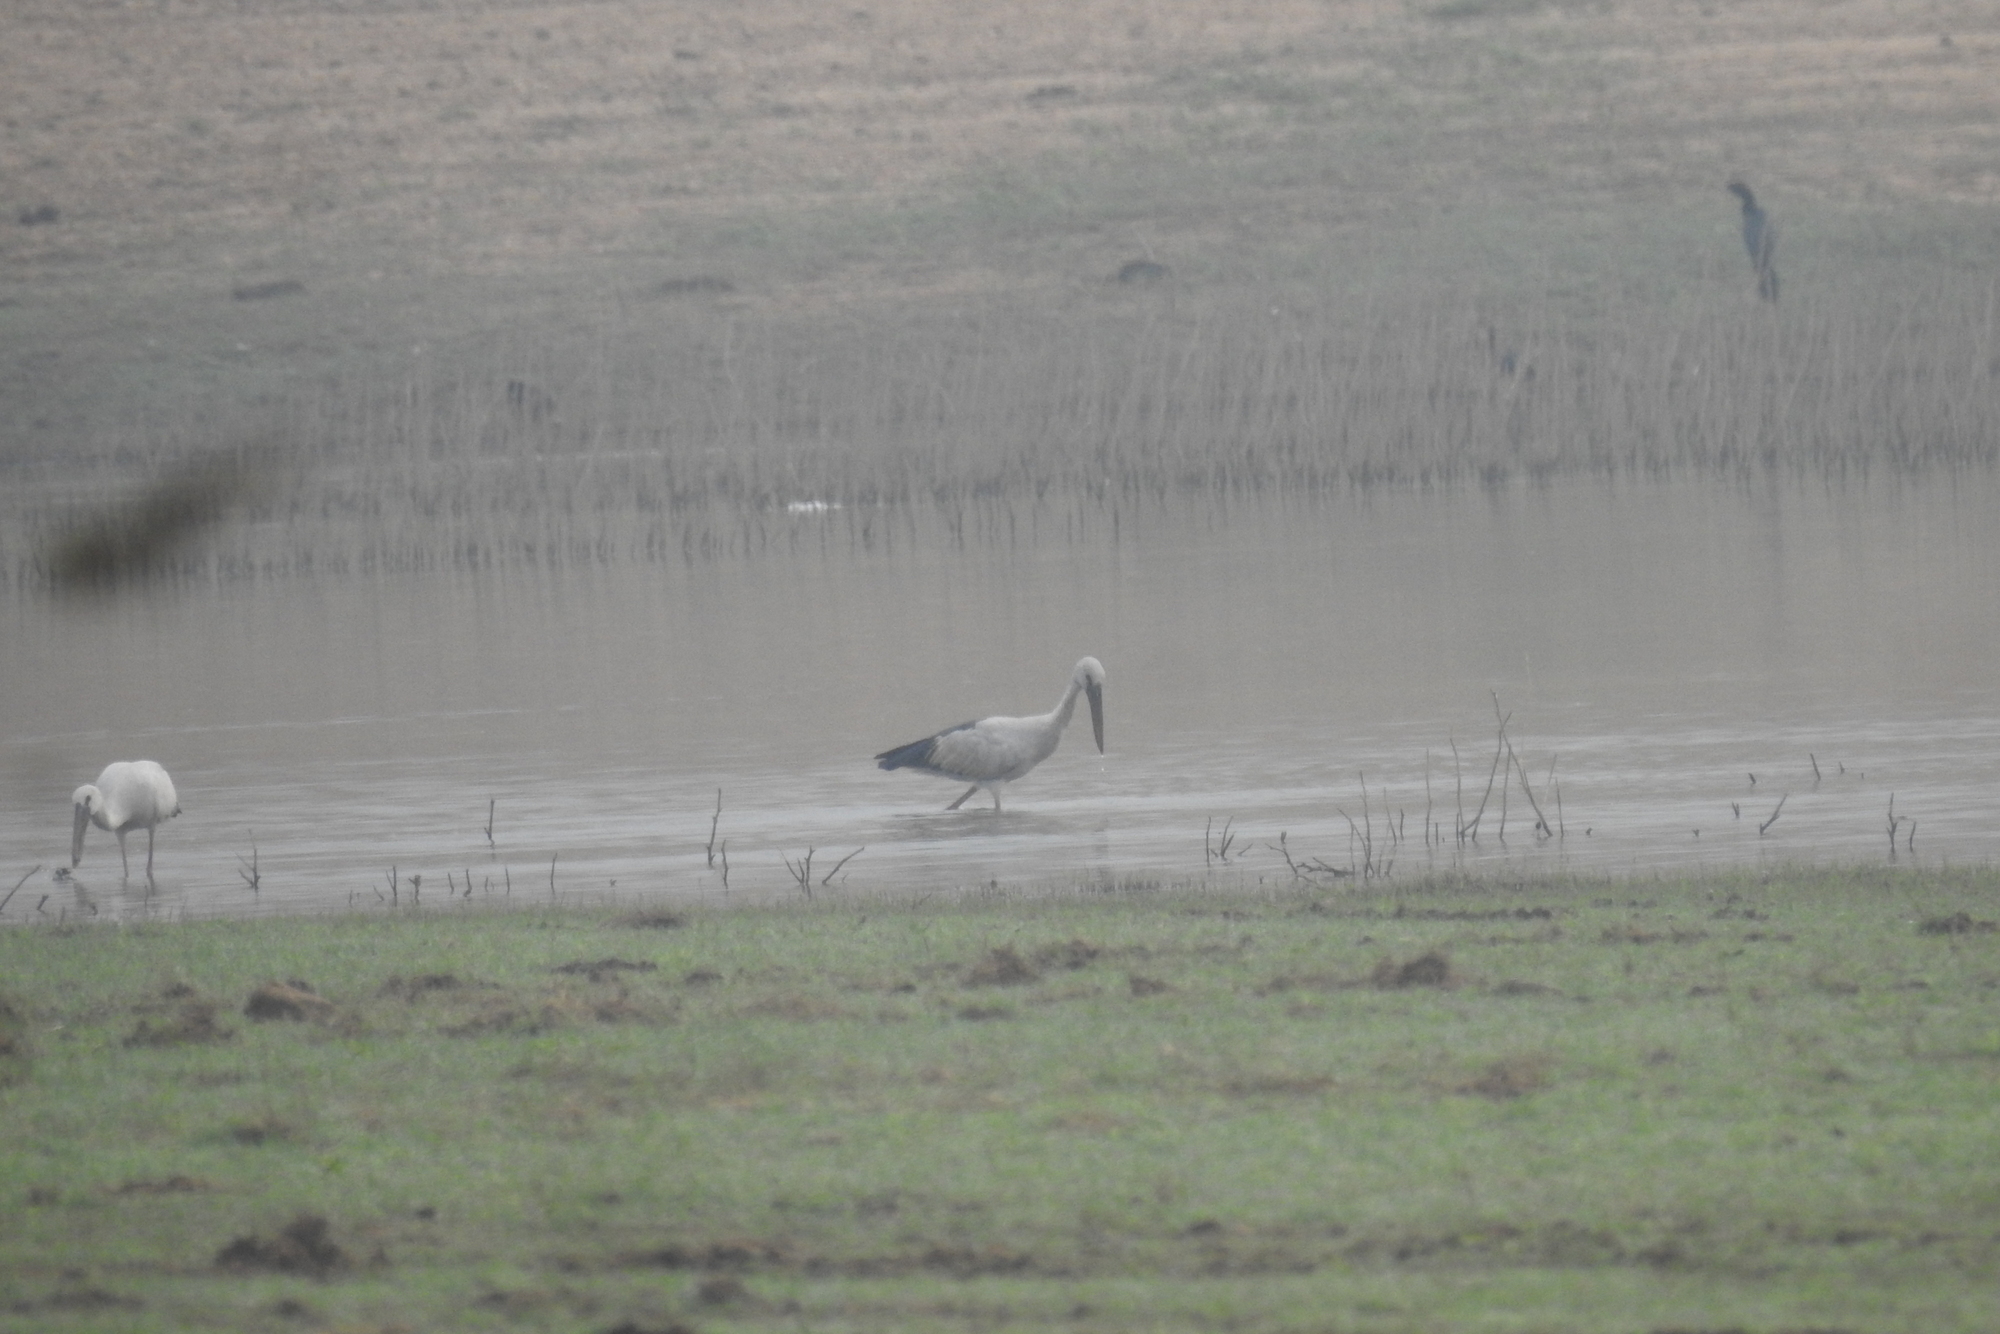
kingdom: Animalia
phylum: Chordata
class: Aves
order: Ciconiiformes
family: Ciconiidae
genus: Anastomus
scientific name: Anastomus oscitans
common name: Asian openbill
